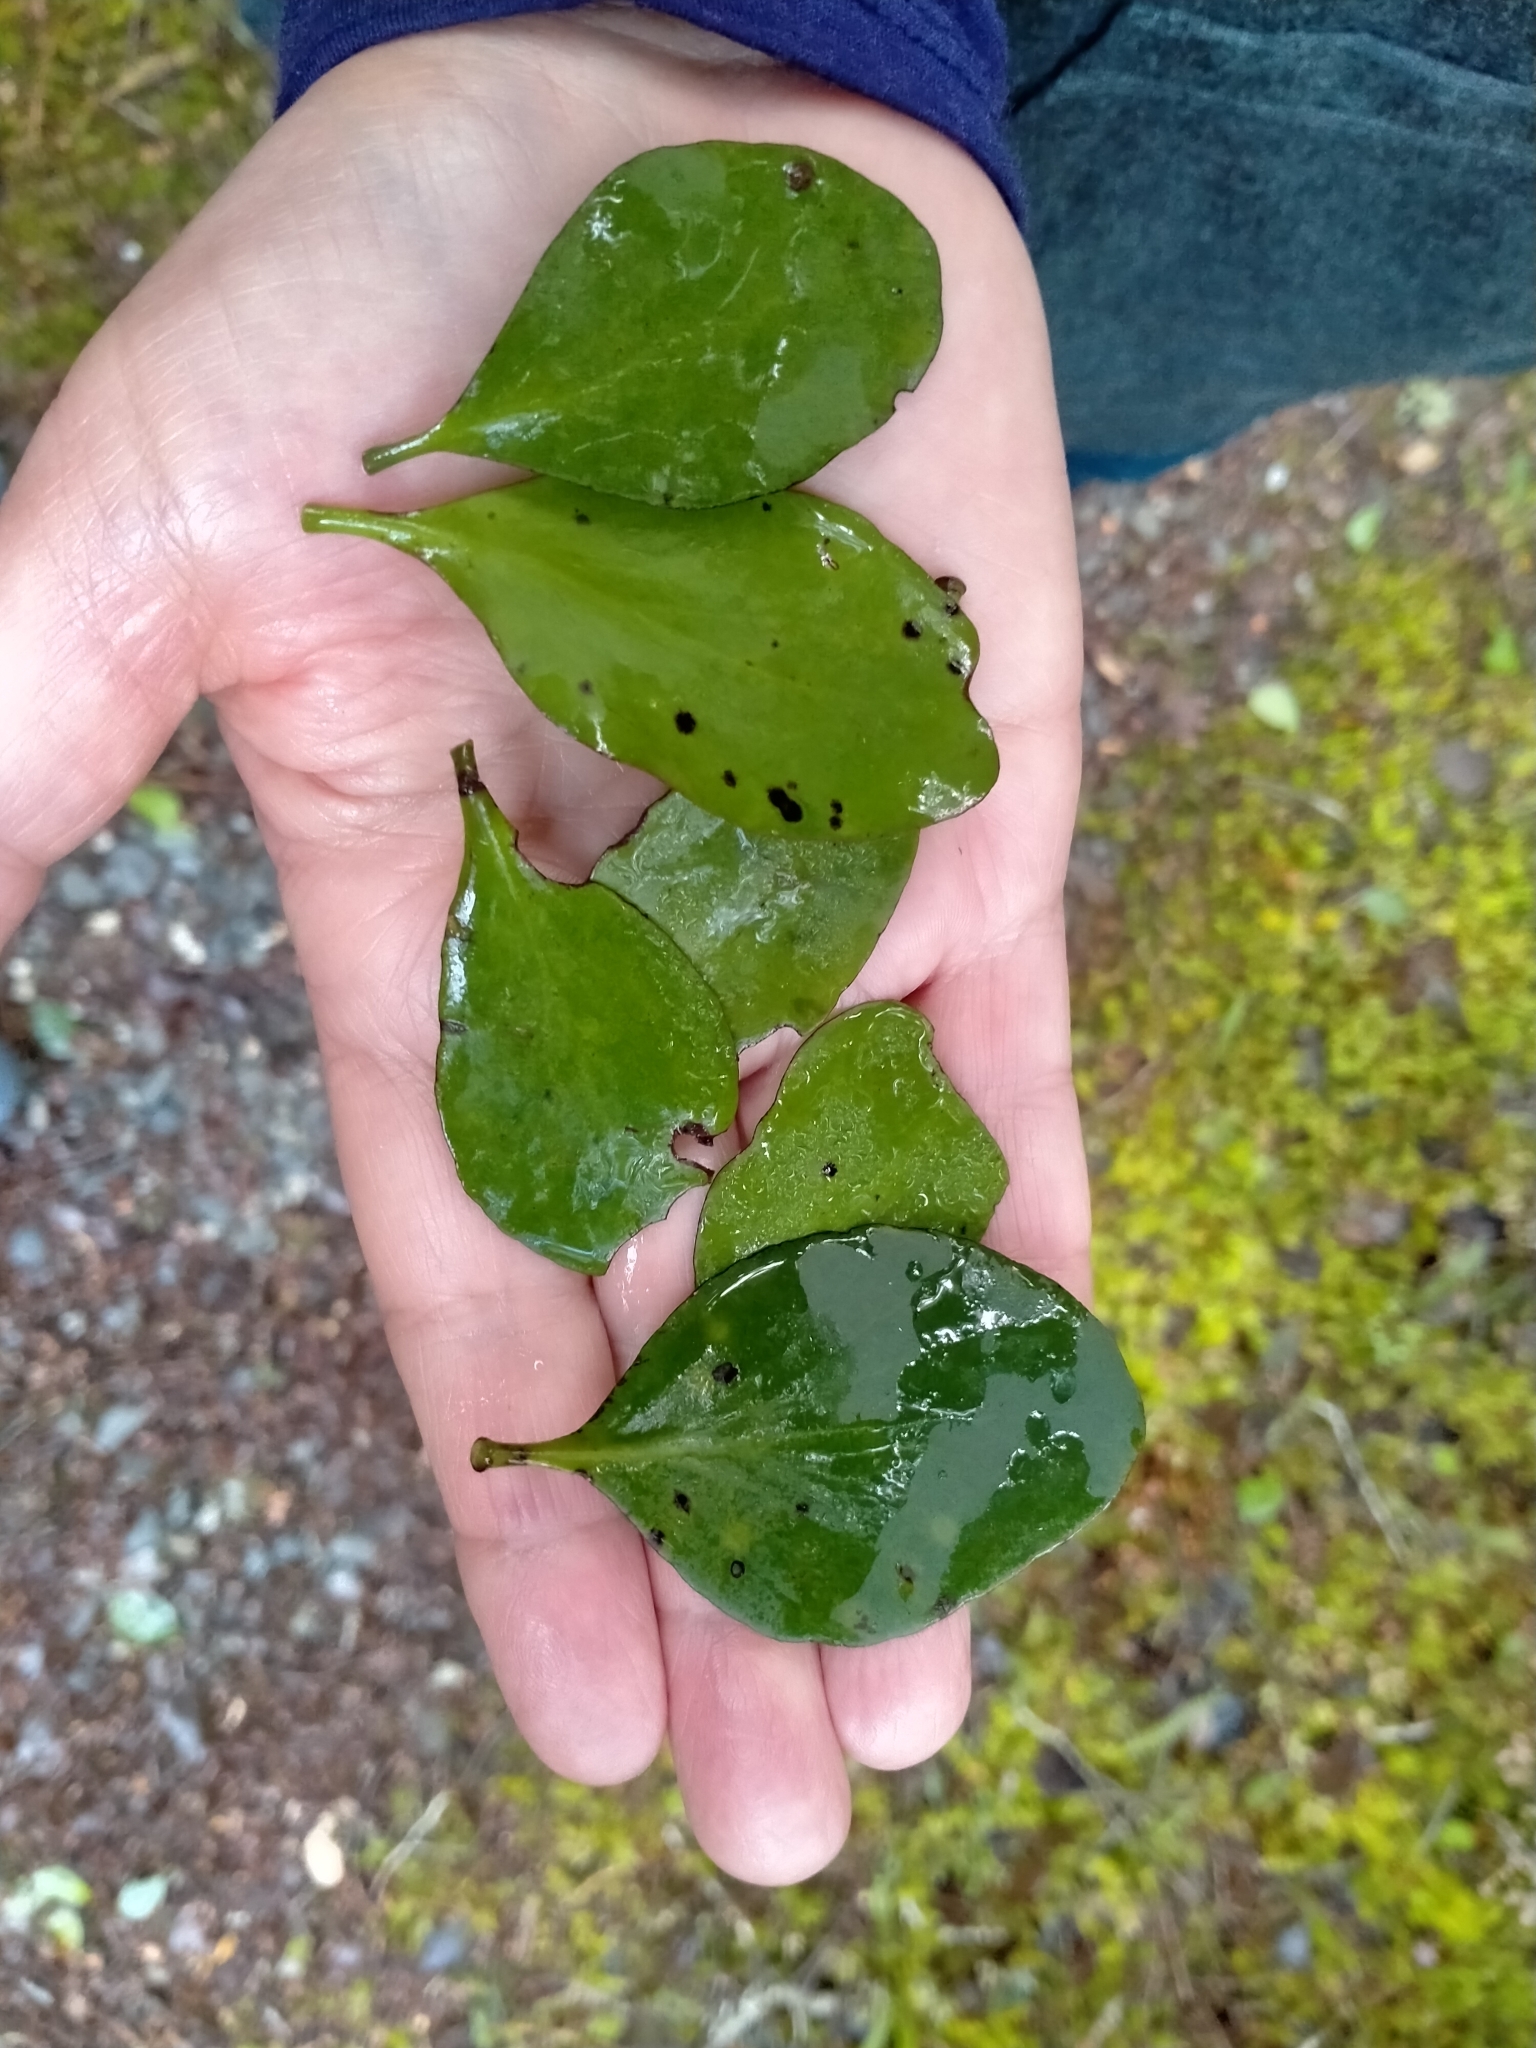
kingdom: Plantae
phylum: Tracheophyta
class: Magnoliopsida
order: Santalales
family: Loranthaceae
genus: Peraxilla
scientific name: Peraxilla colensoi
